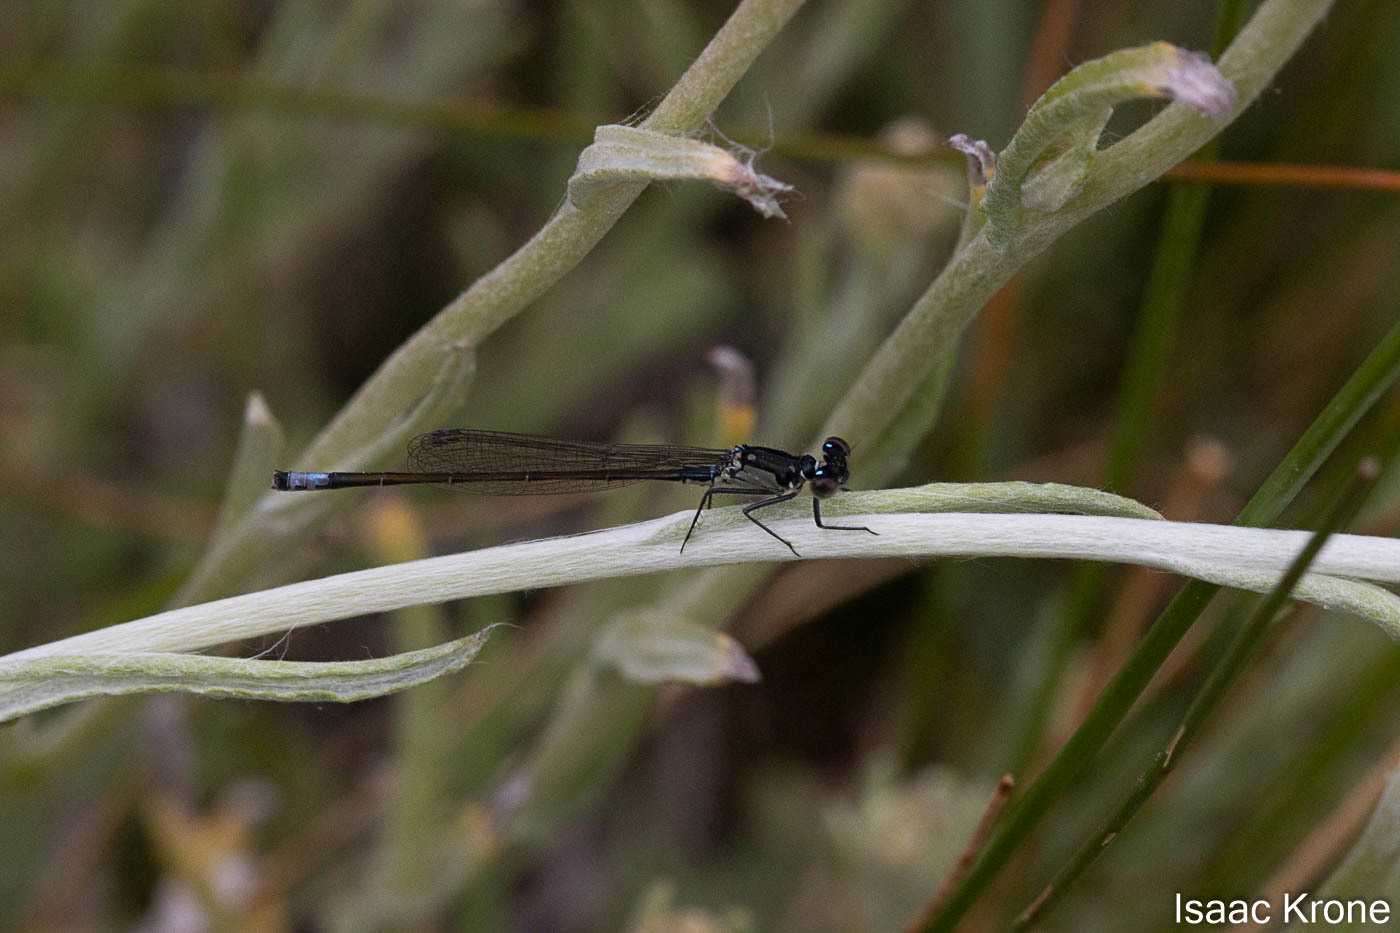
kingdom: Animalia
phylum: Arthropoda
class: Insecta
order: Odonata
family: Coenagrionidae
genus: Ischnura
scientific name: Ischnura cervula
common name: Pacific forktail
